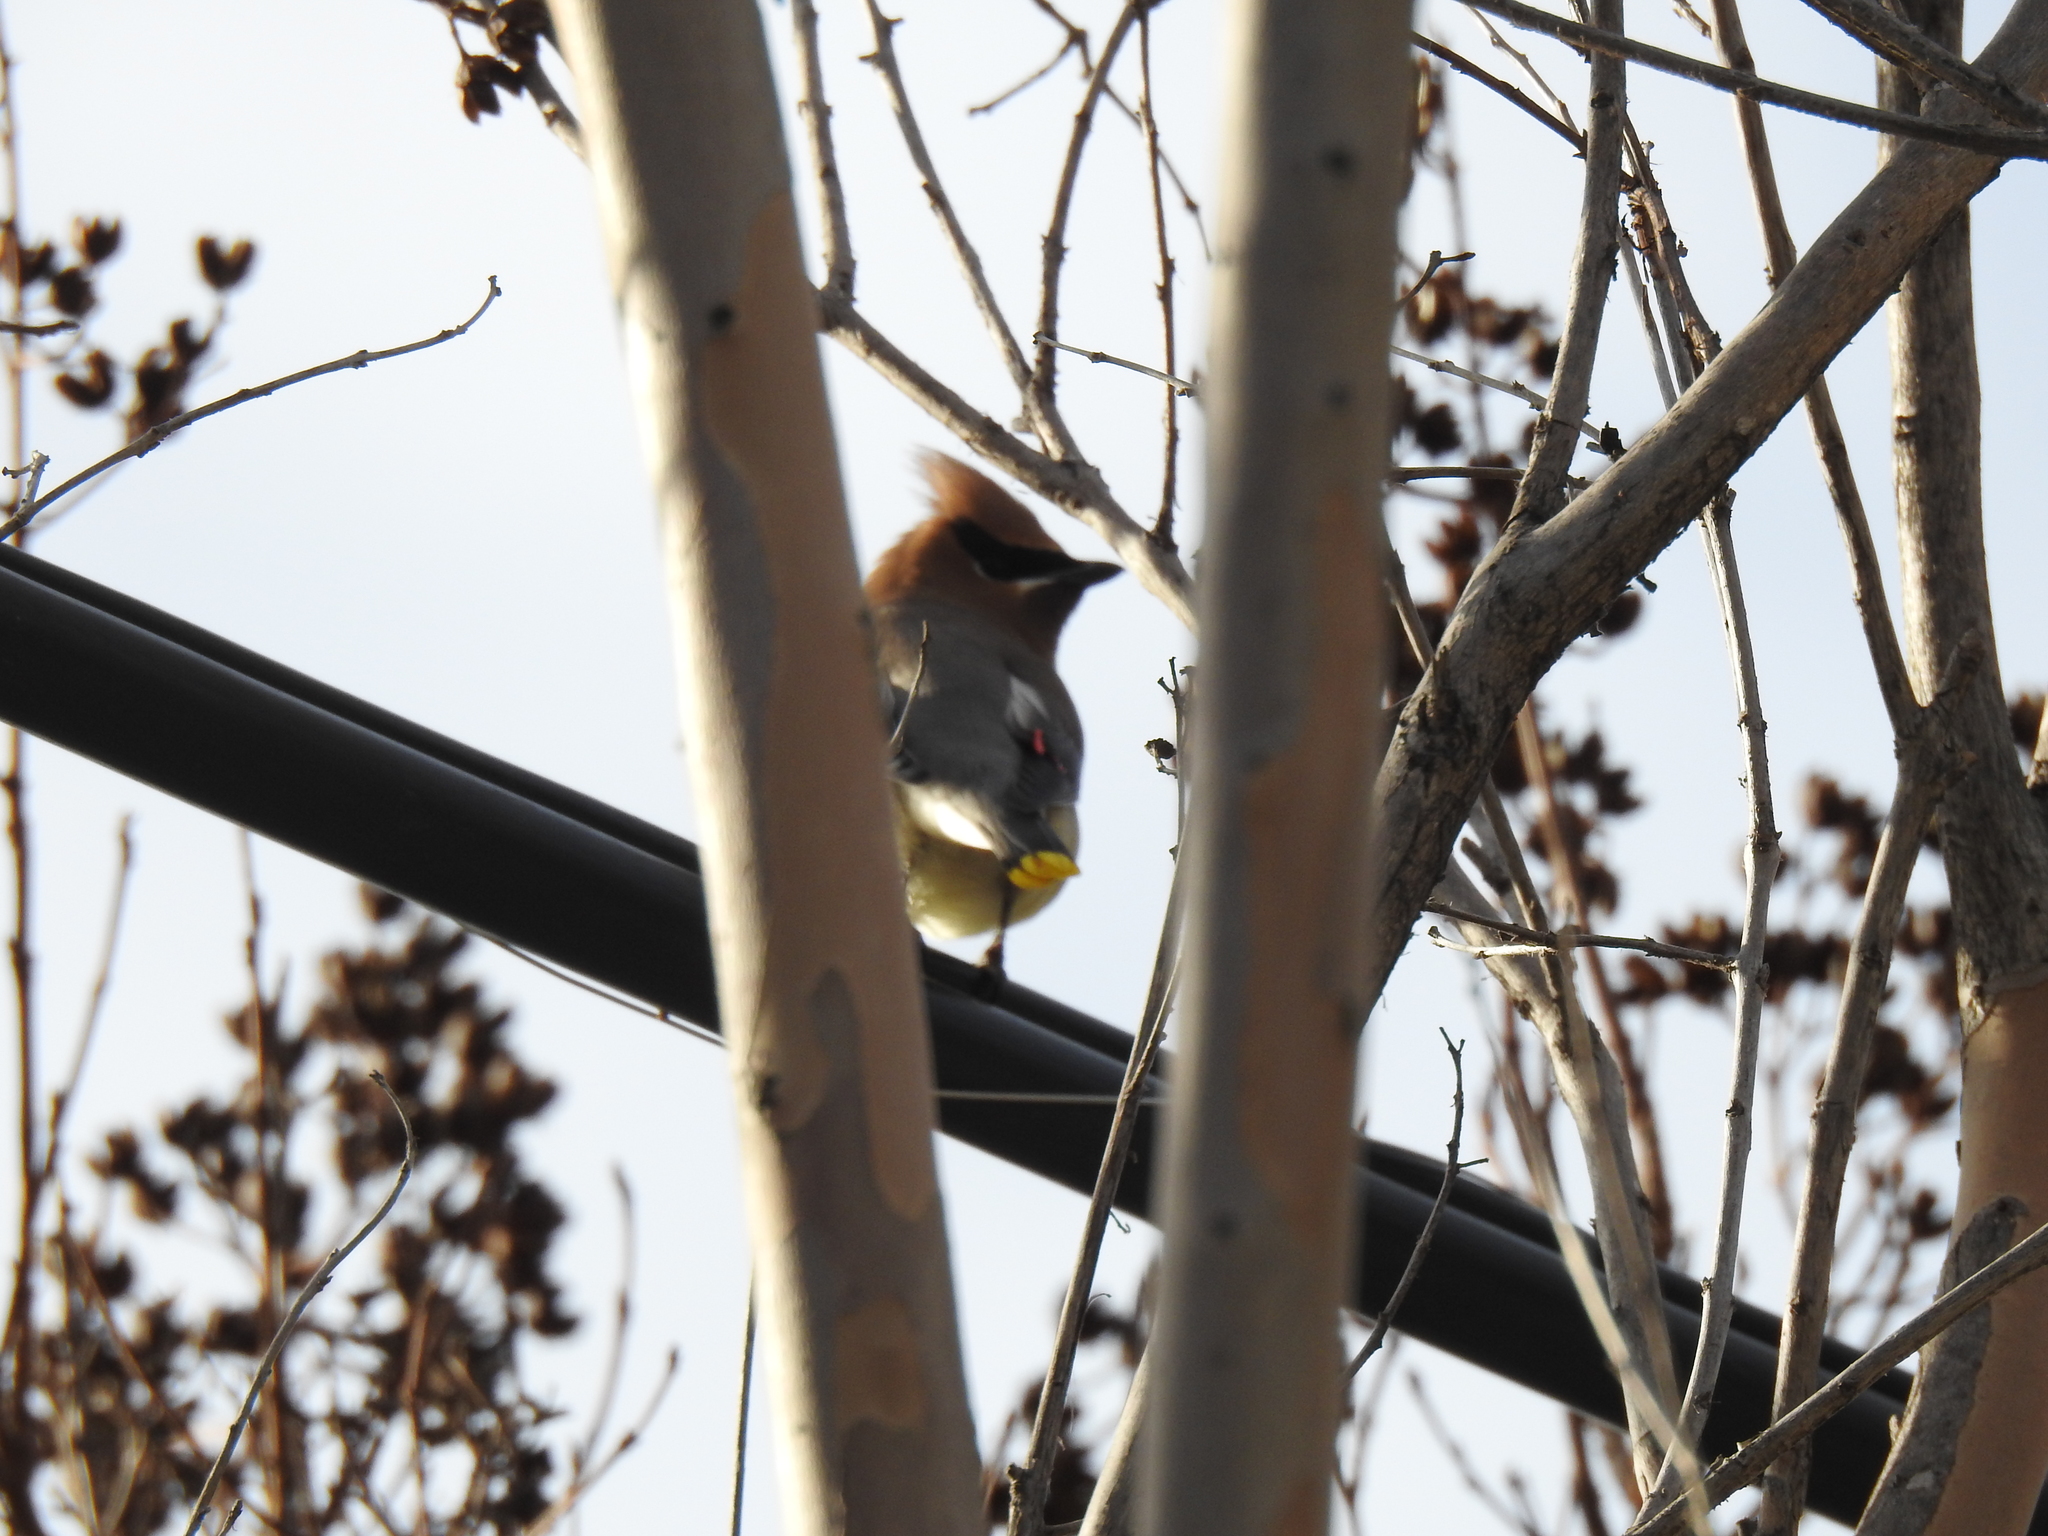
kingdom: Animalia
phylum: Chordata
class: Aves
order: Passeriformes
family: Bombycillidae
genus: Bombycilla
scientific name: Bombycilla cedrorum
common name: Cedar waxwing
